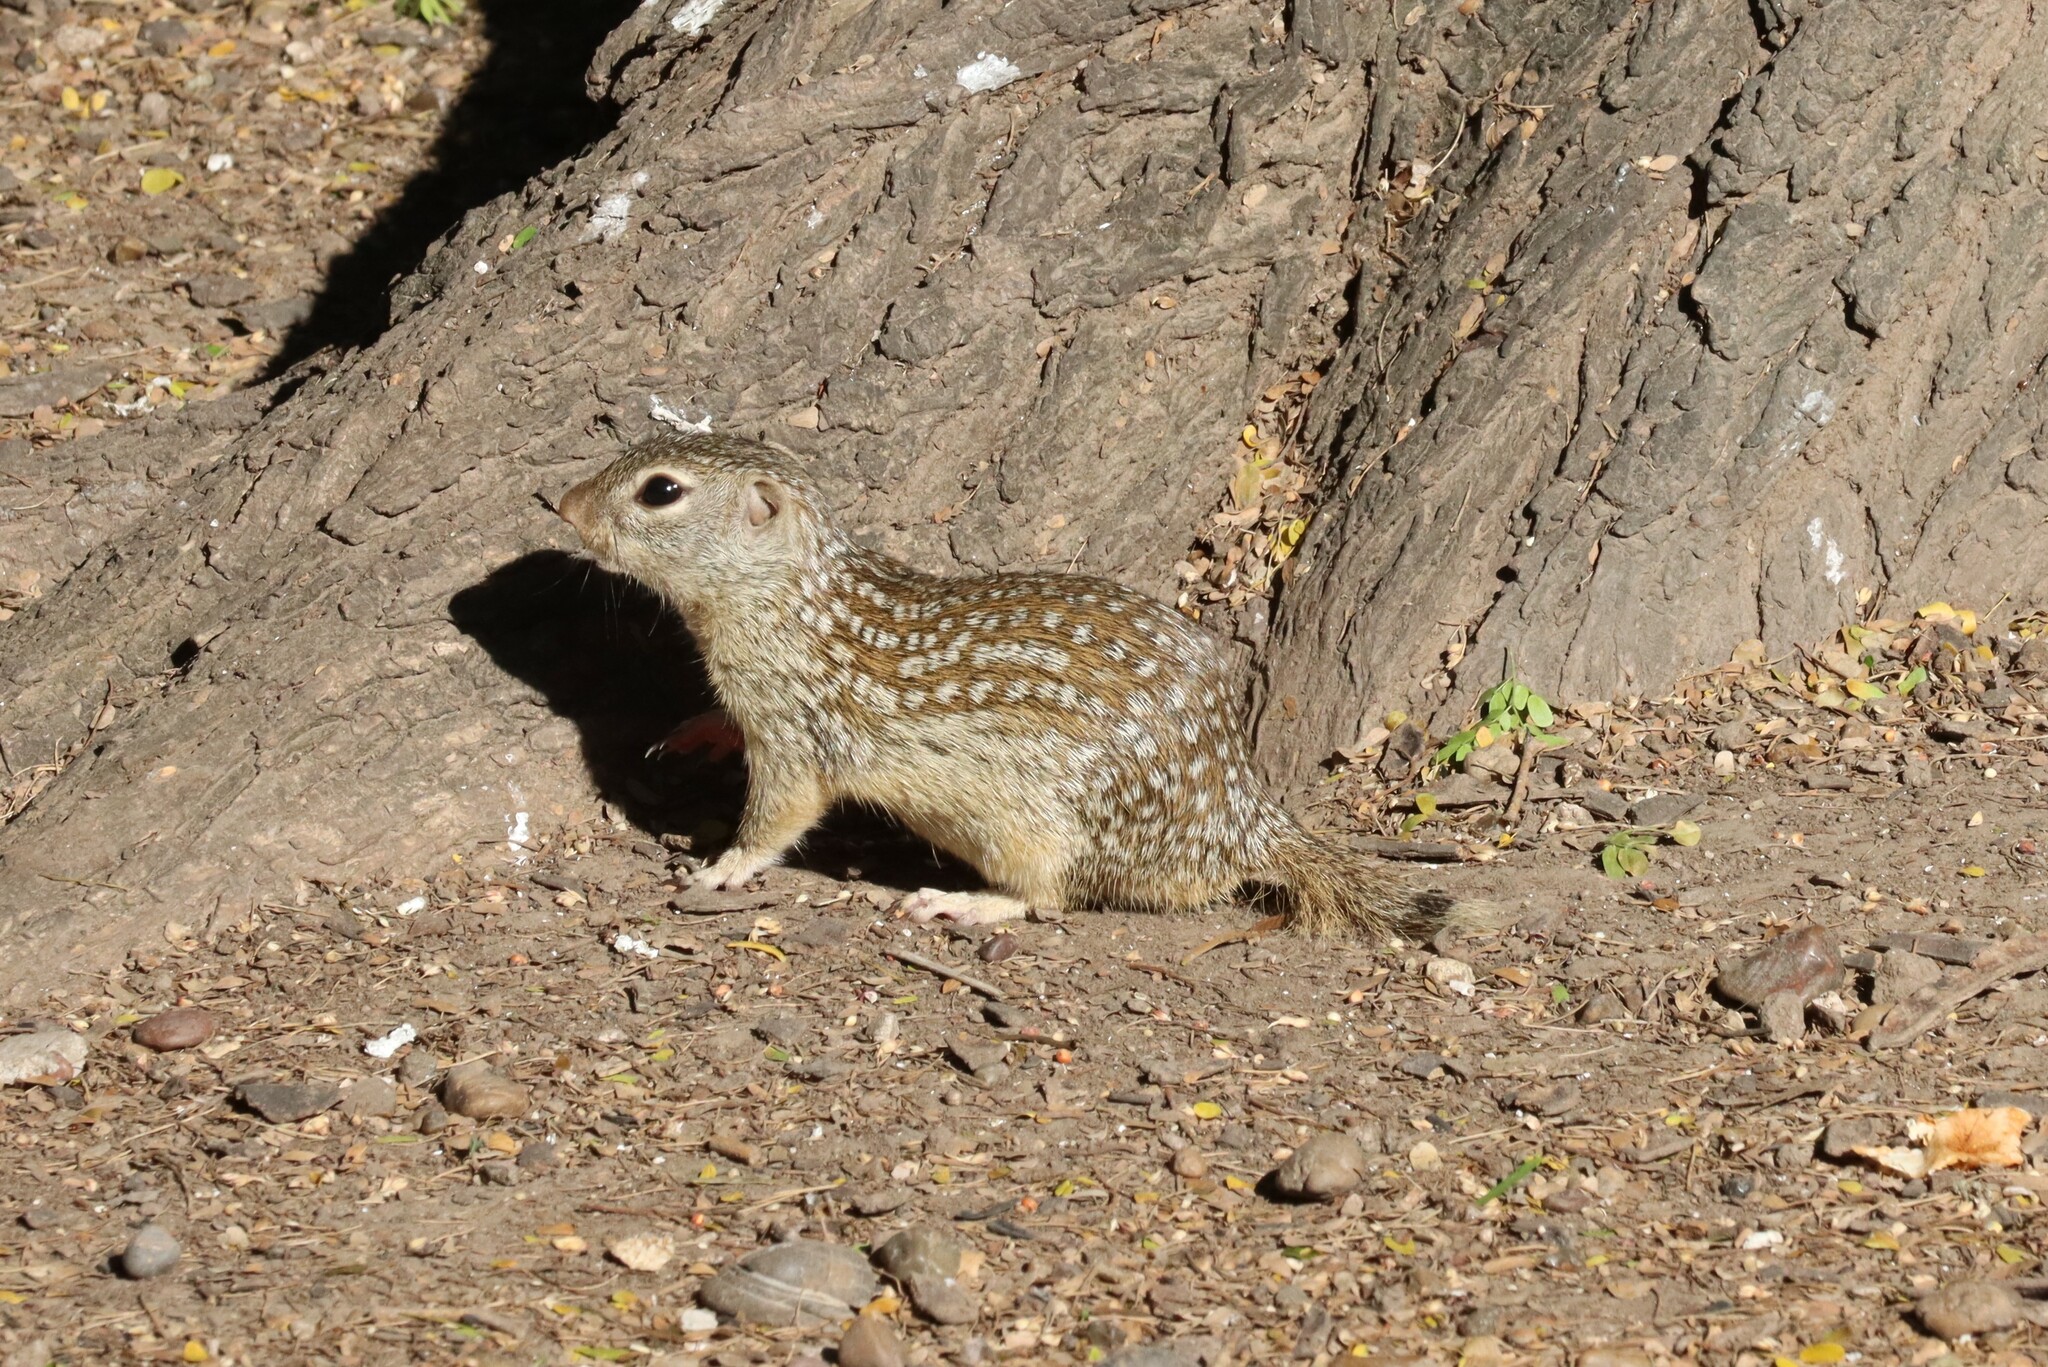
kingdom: Animalia
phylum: Chordata
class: Mammalia
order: Rodentia
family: Sciuridae
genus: Ictidomys
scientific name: Ictidomys parvidens
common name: Rio grande ground squirrel
